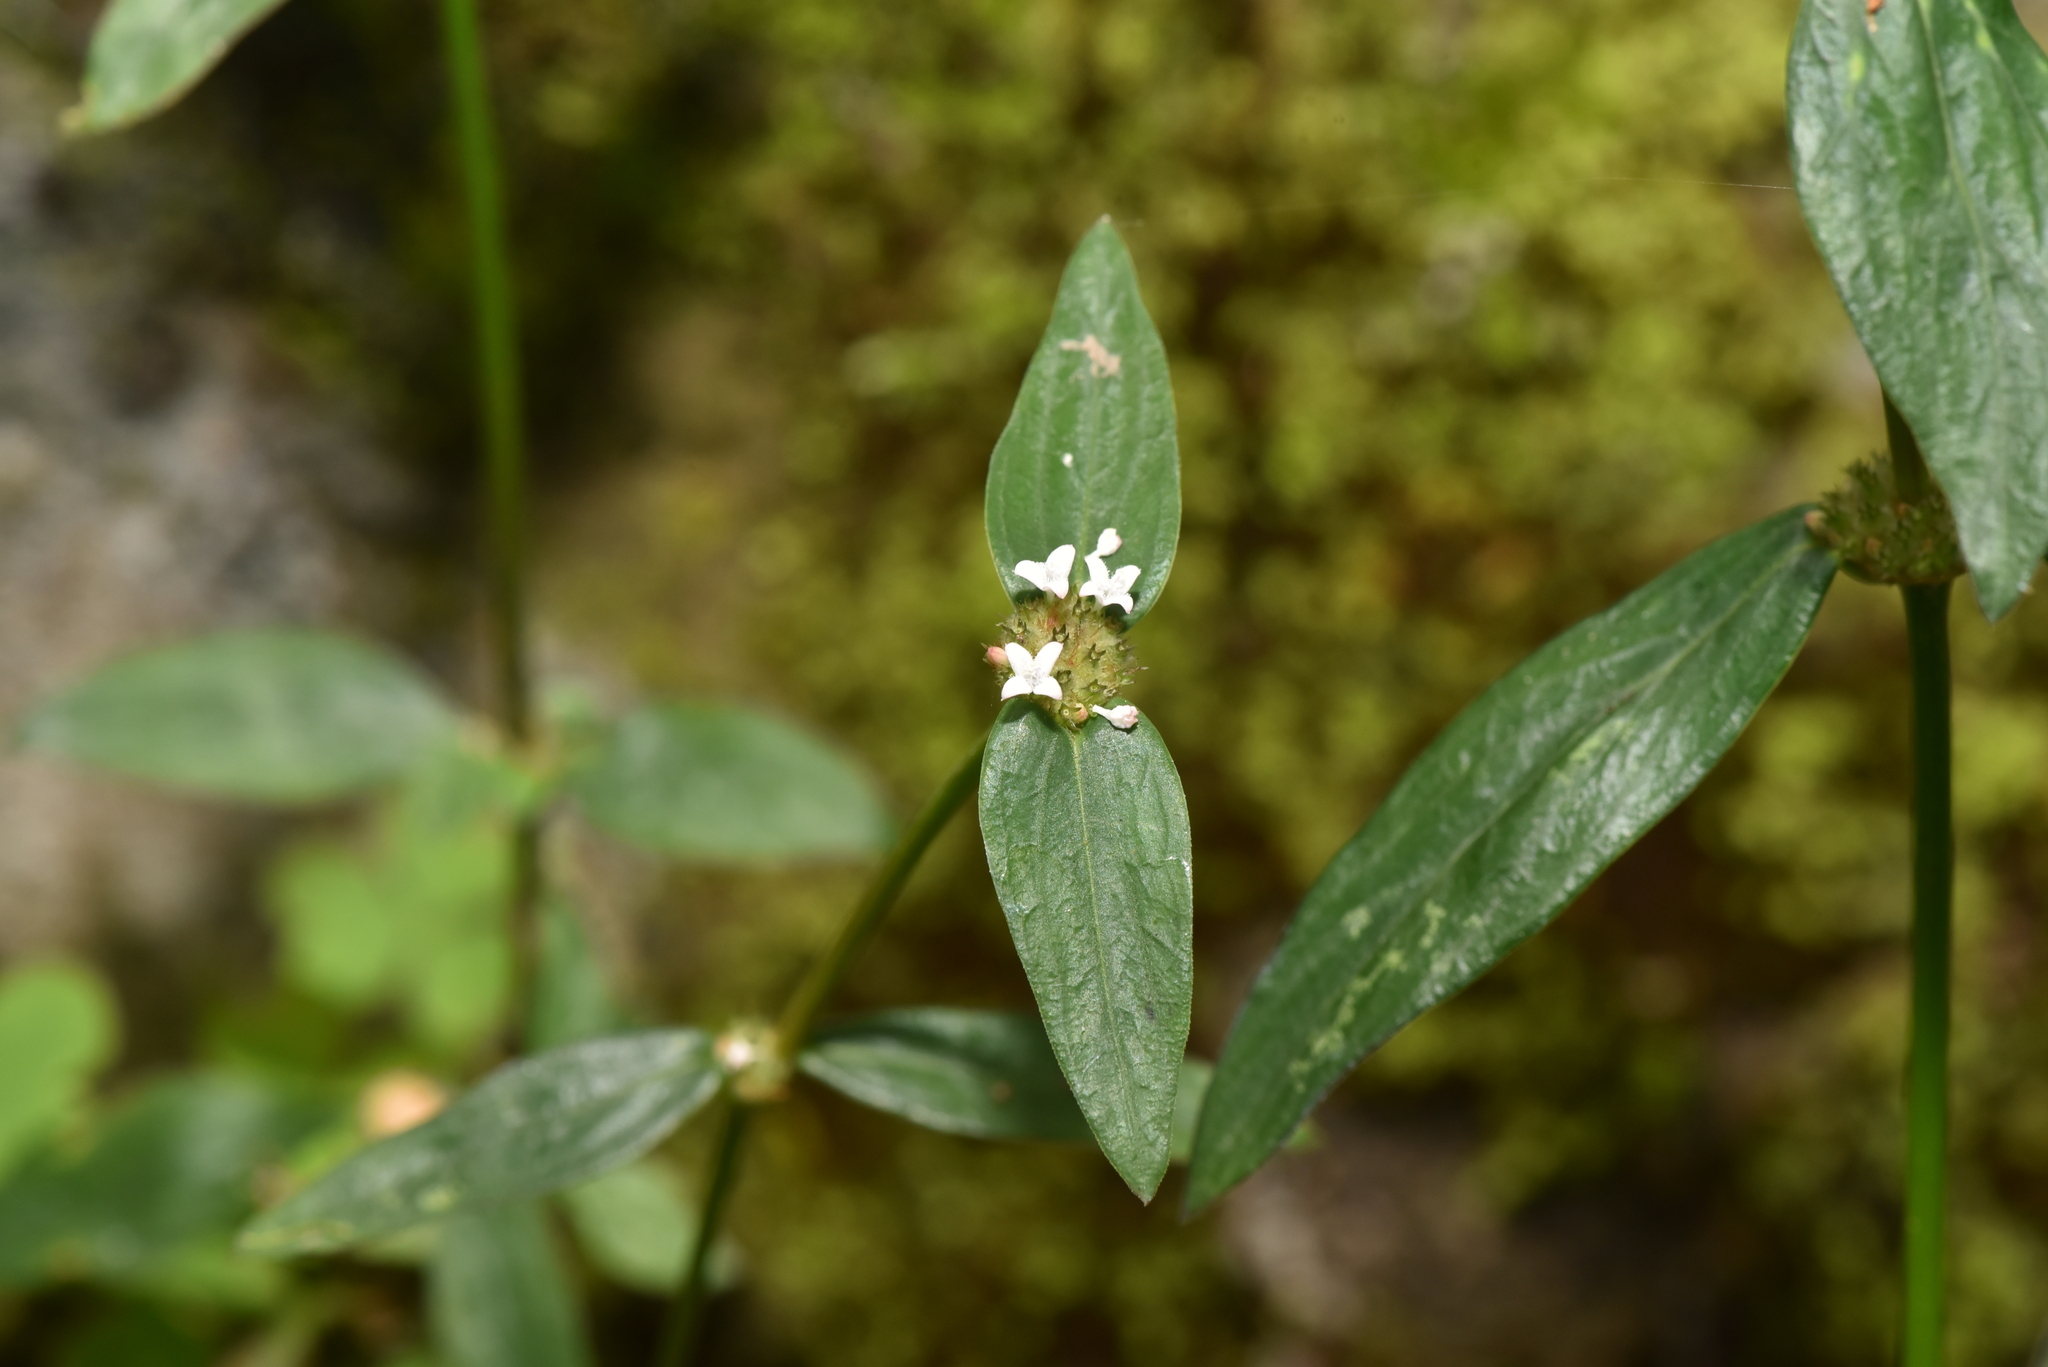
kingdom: Plantae
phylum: Tracheophyta
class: Magnoliopsida
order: Gentianales
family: Rubiaceae
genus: Spermacoce
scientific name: Spermacoce remota
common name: Woodland false buttonweed
